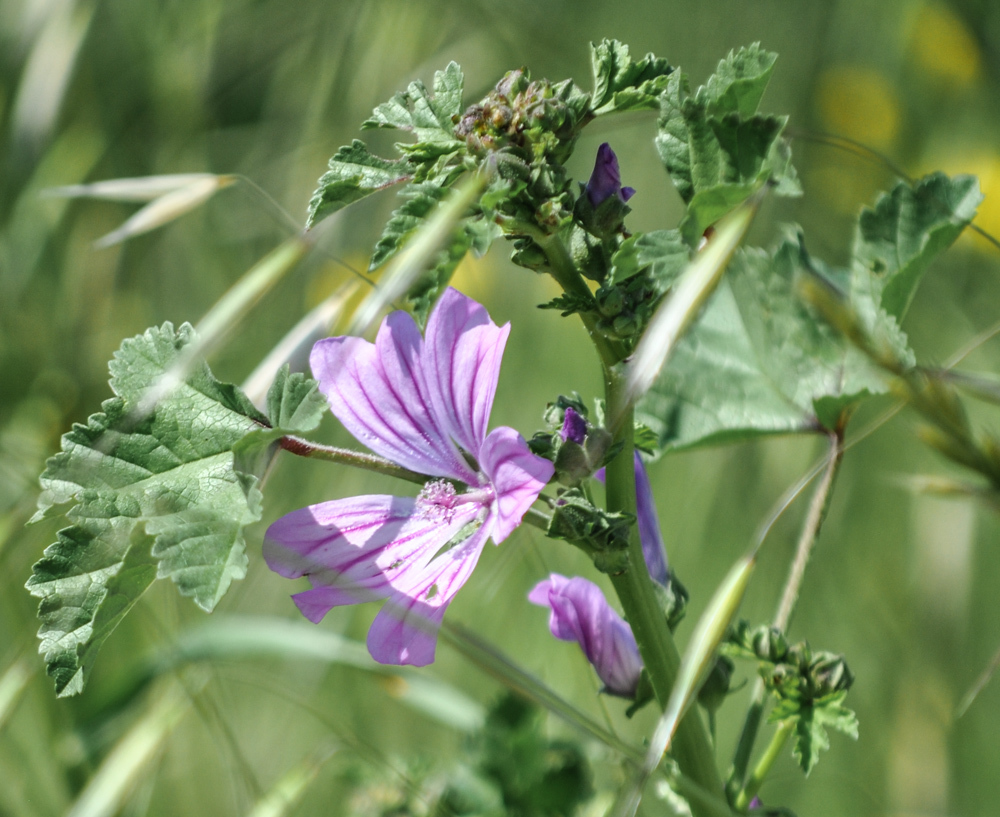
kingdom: Plantae
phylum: Tracheophyta
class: Magnoliopsida
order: Malvales
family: Malvaceae
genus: Malva
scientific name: Malva sylvestris
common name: Common mallow
